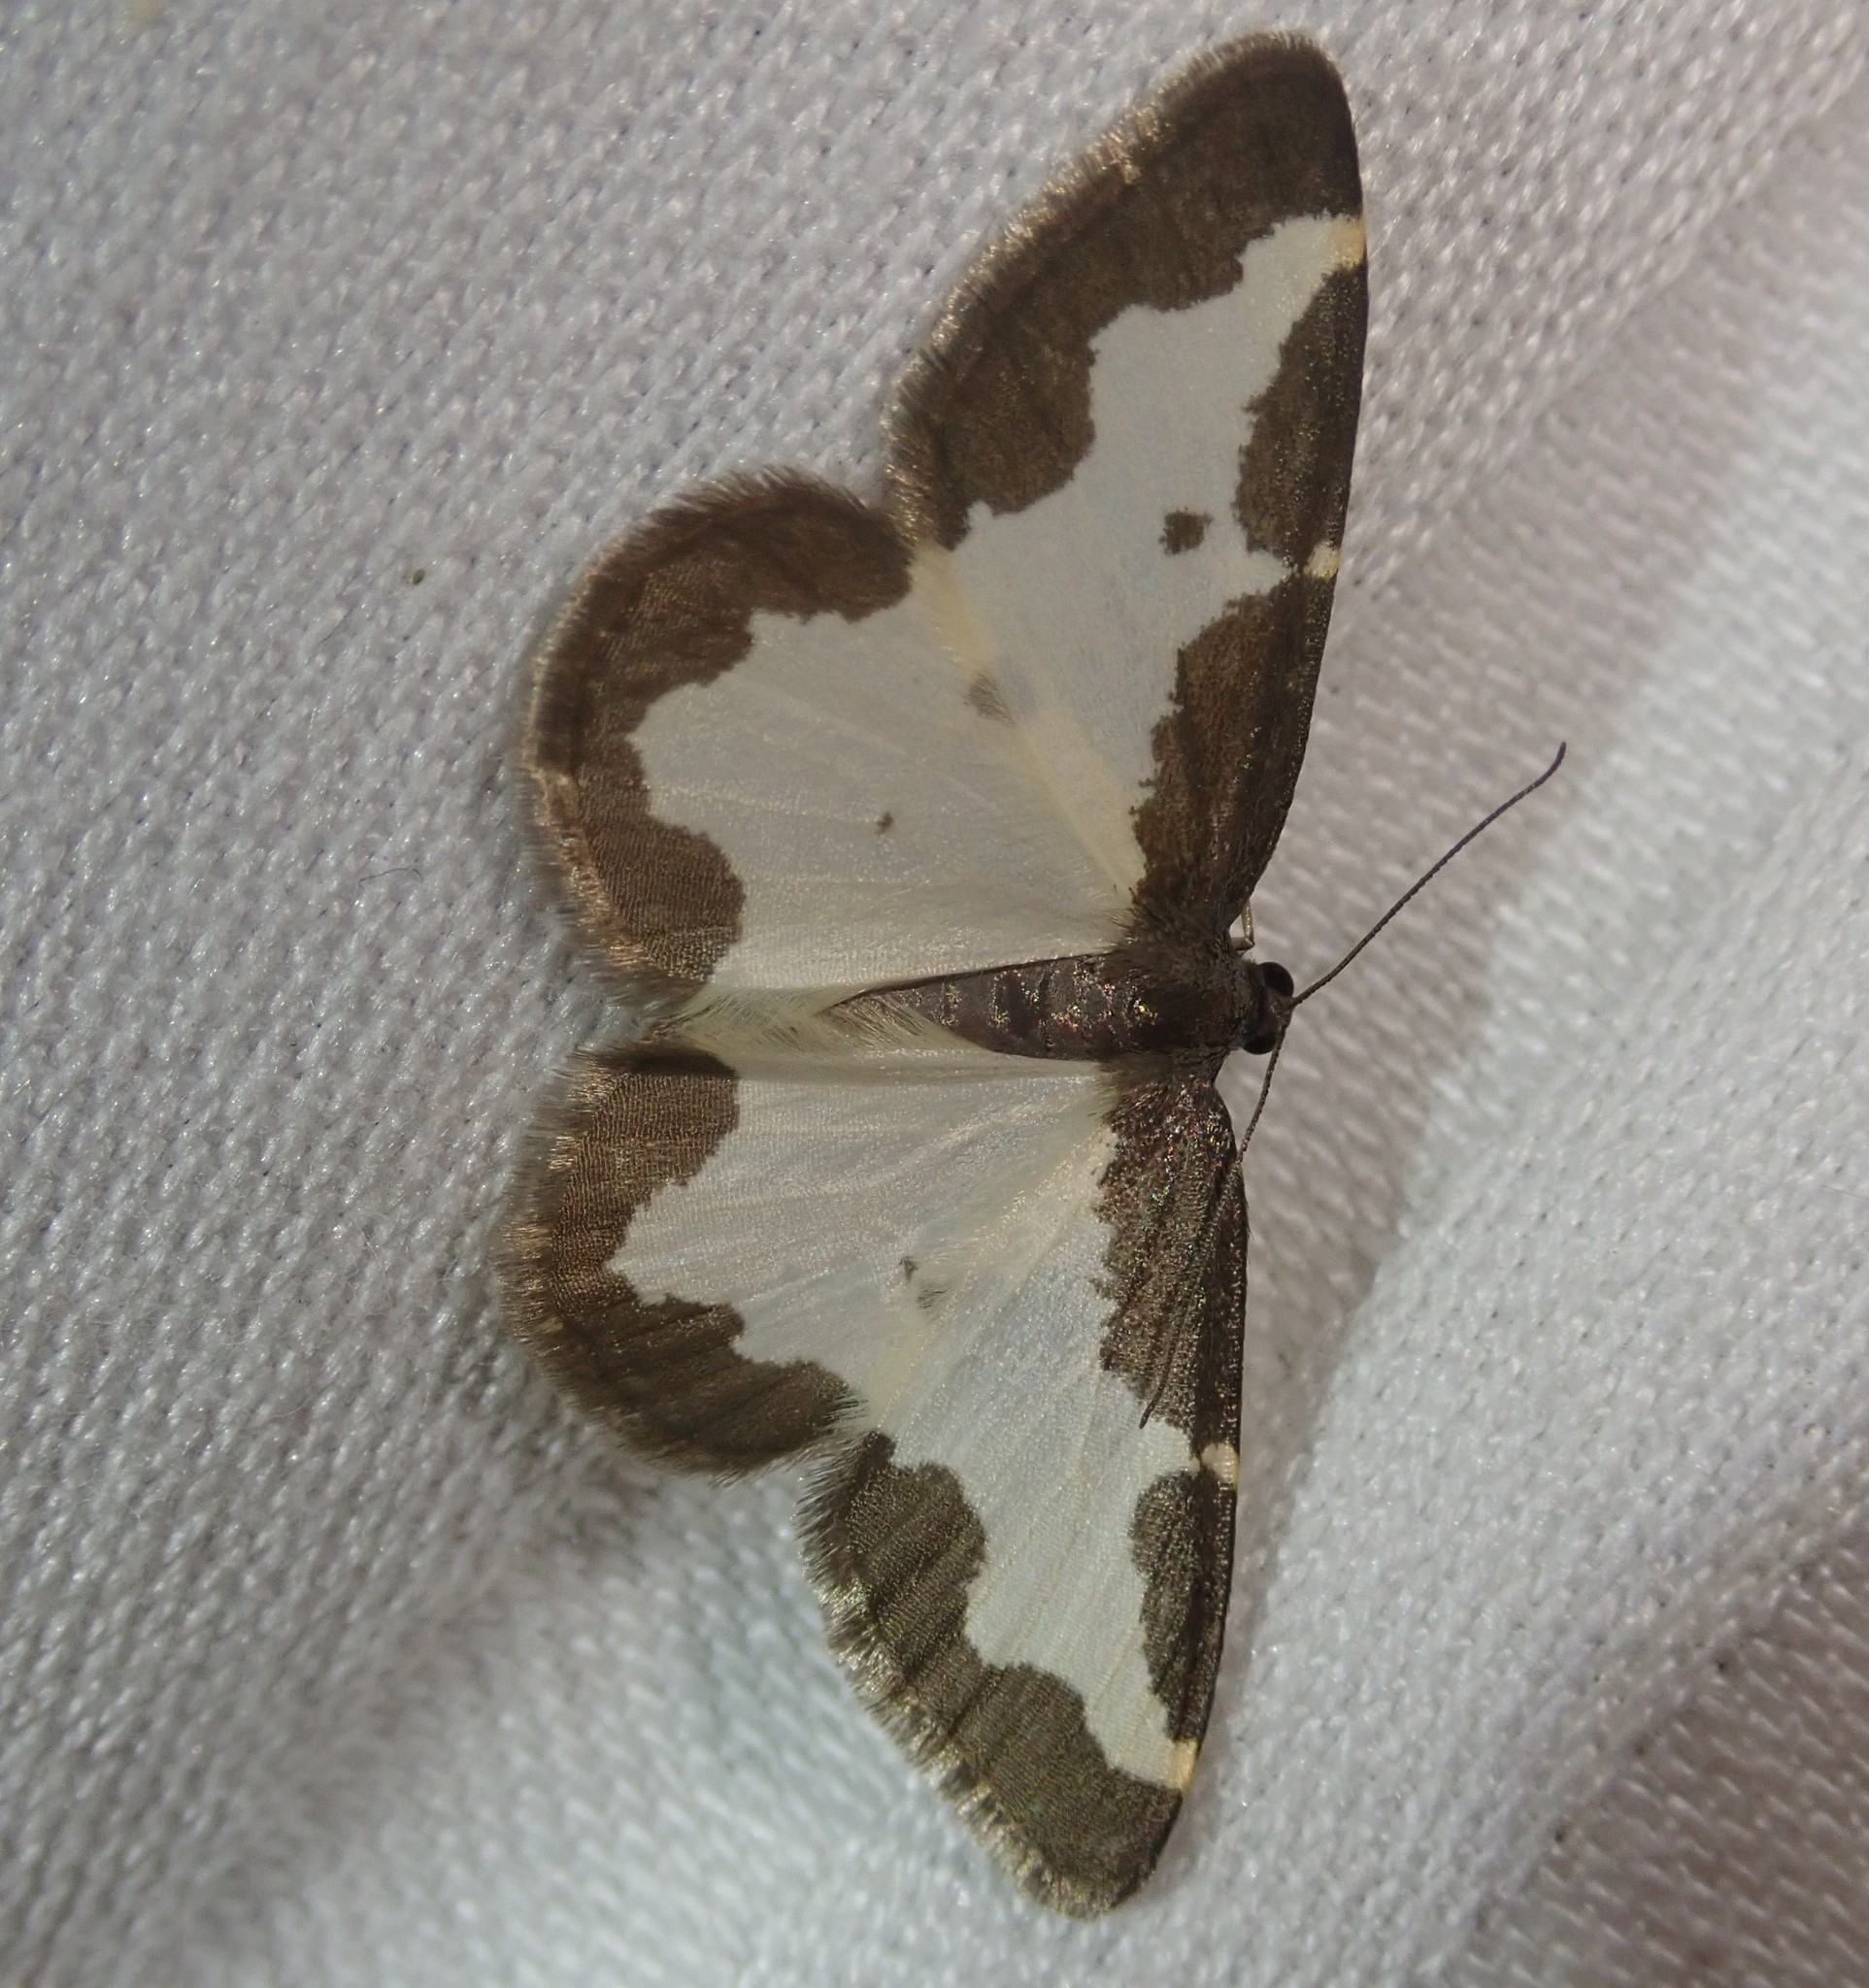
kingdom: Animalia
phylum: Arthropoda
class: Insecta
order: Lepidoptera
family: Geometridae
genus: Lomaspilis
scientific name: Lomaspilis marginata
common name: Clouded border
